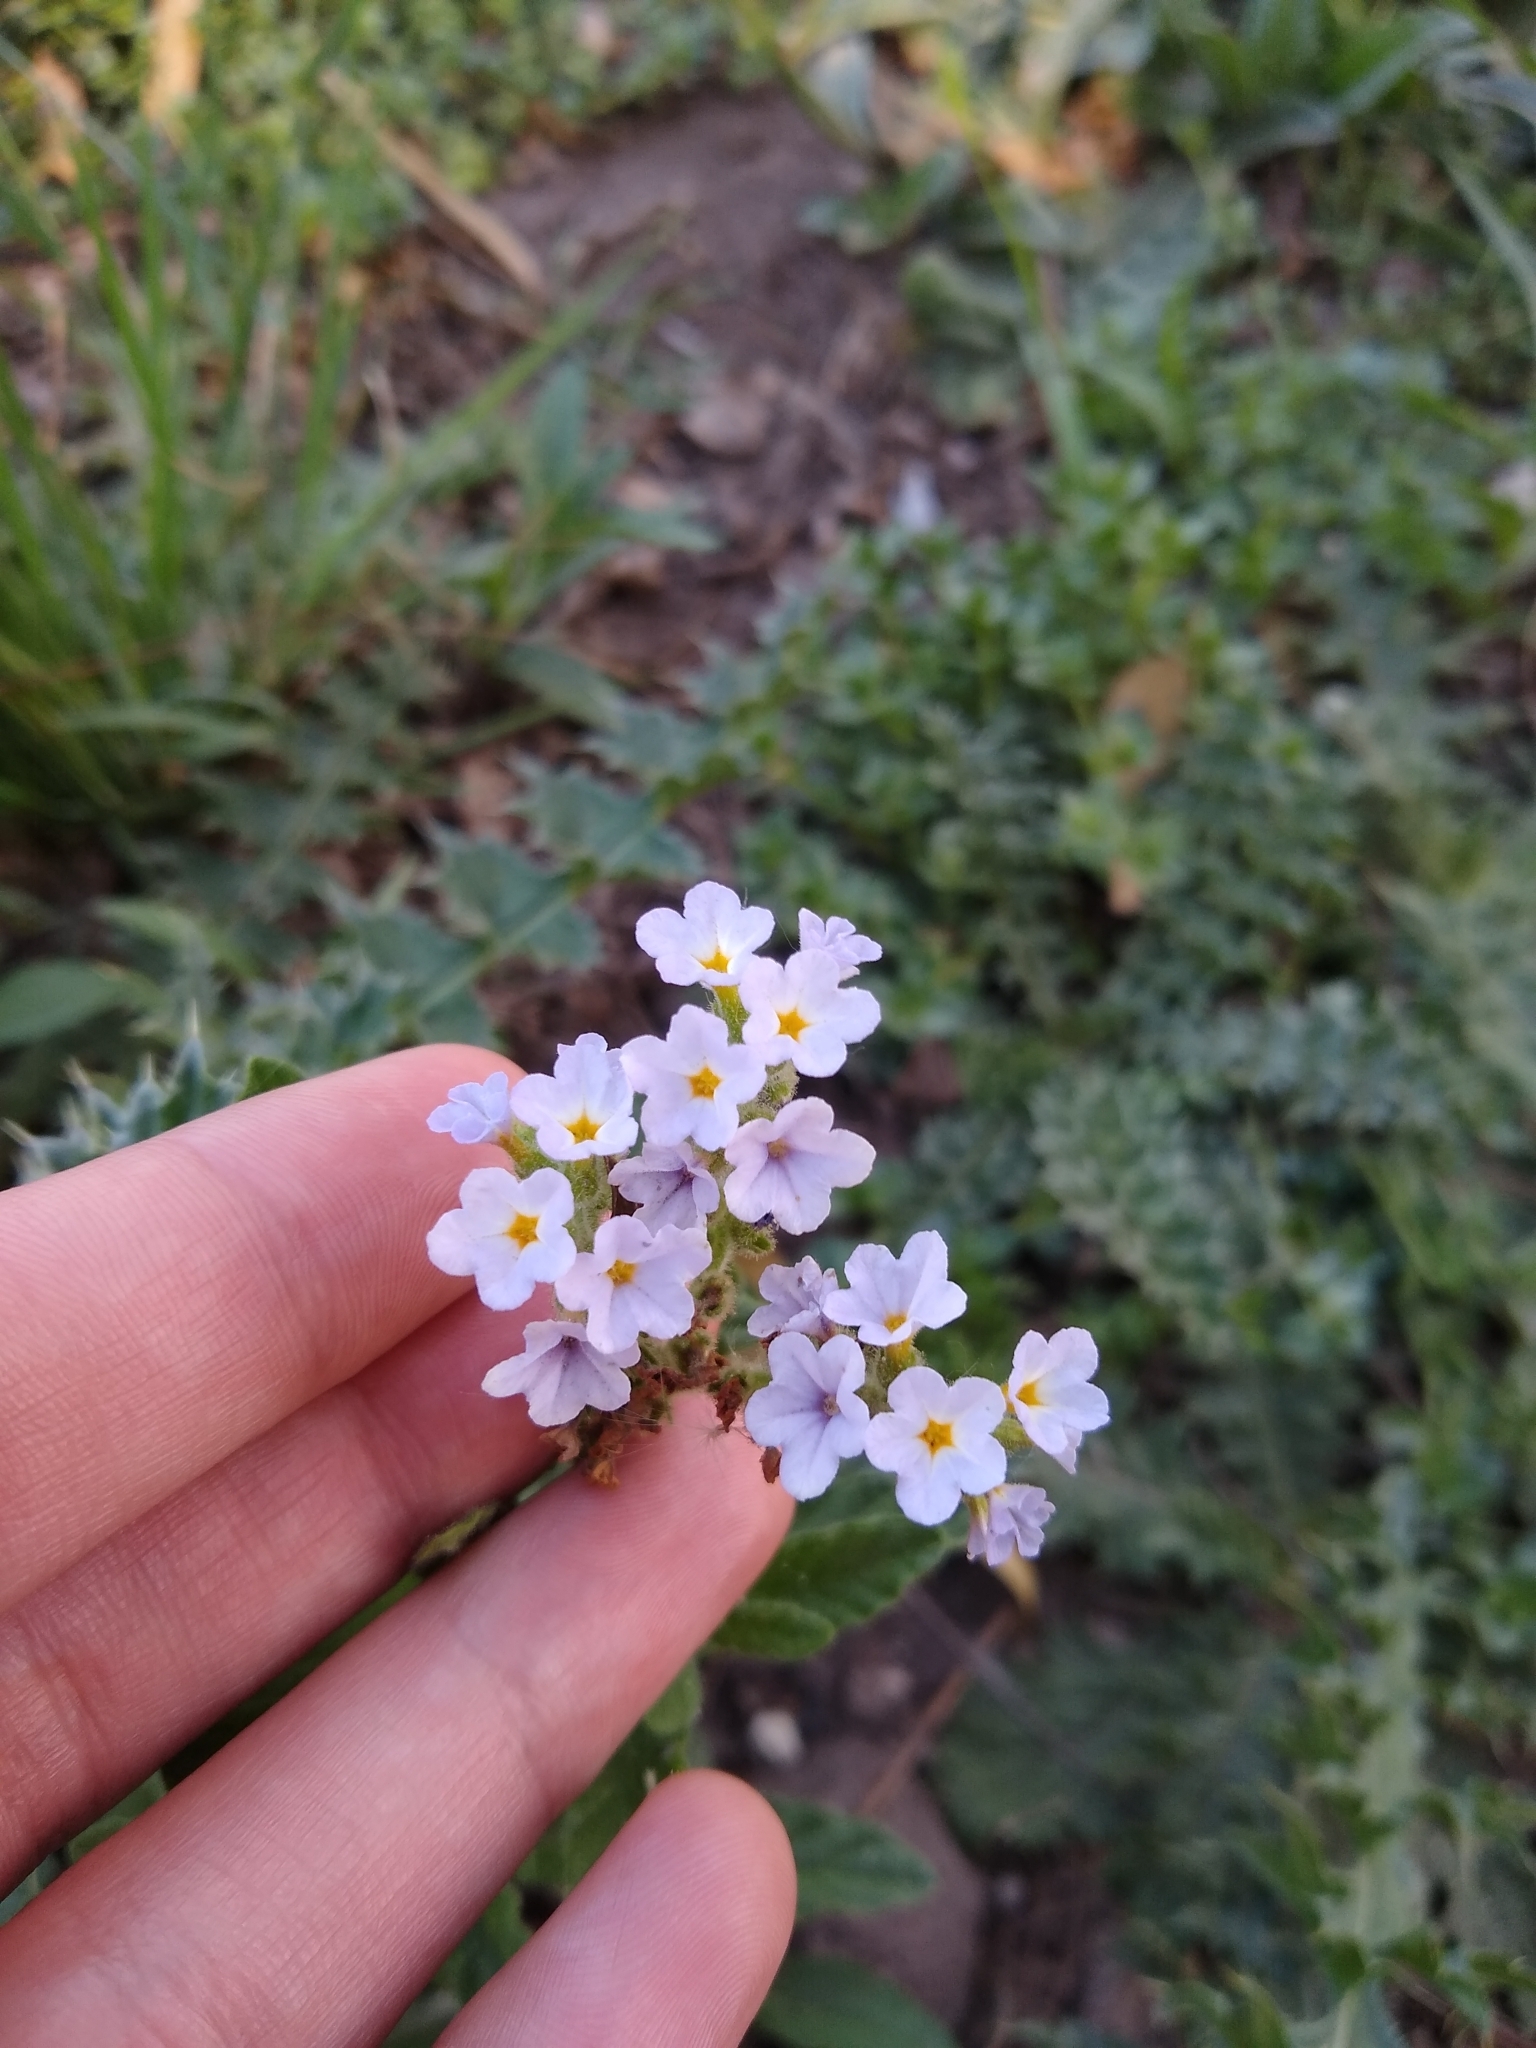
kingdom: Plantae
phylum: Tracheophyta
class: Magnoliopsida
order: Boraginales
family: Heliotropiaceae
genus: Heliotropium
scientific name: Heliotropium amplexicaule
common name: Clasping heliotrope
